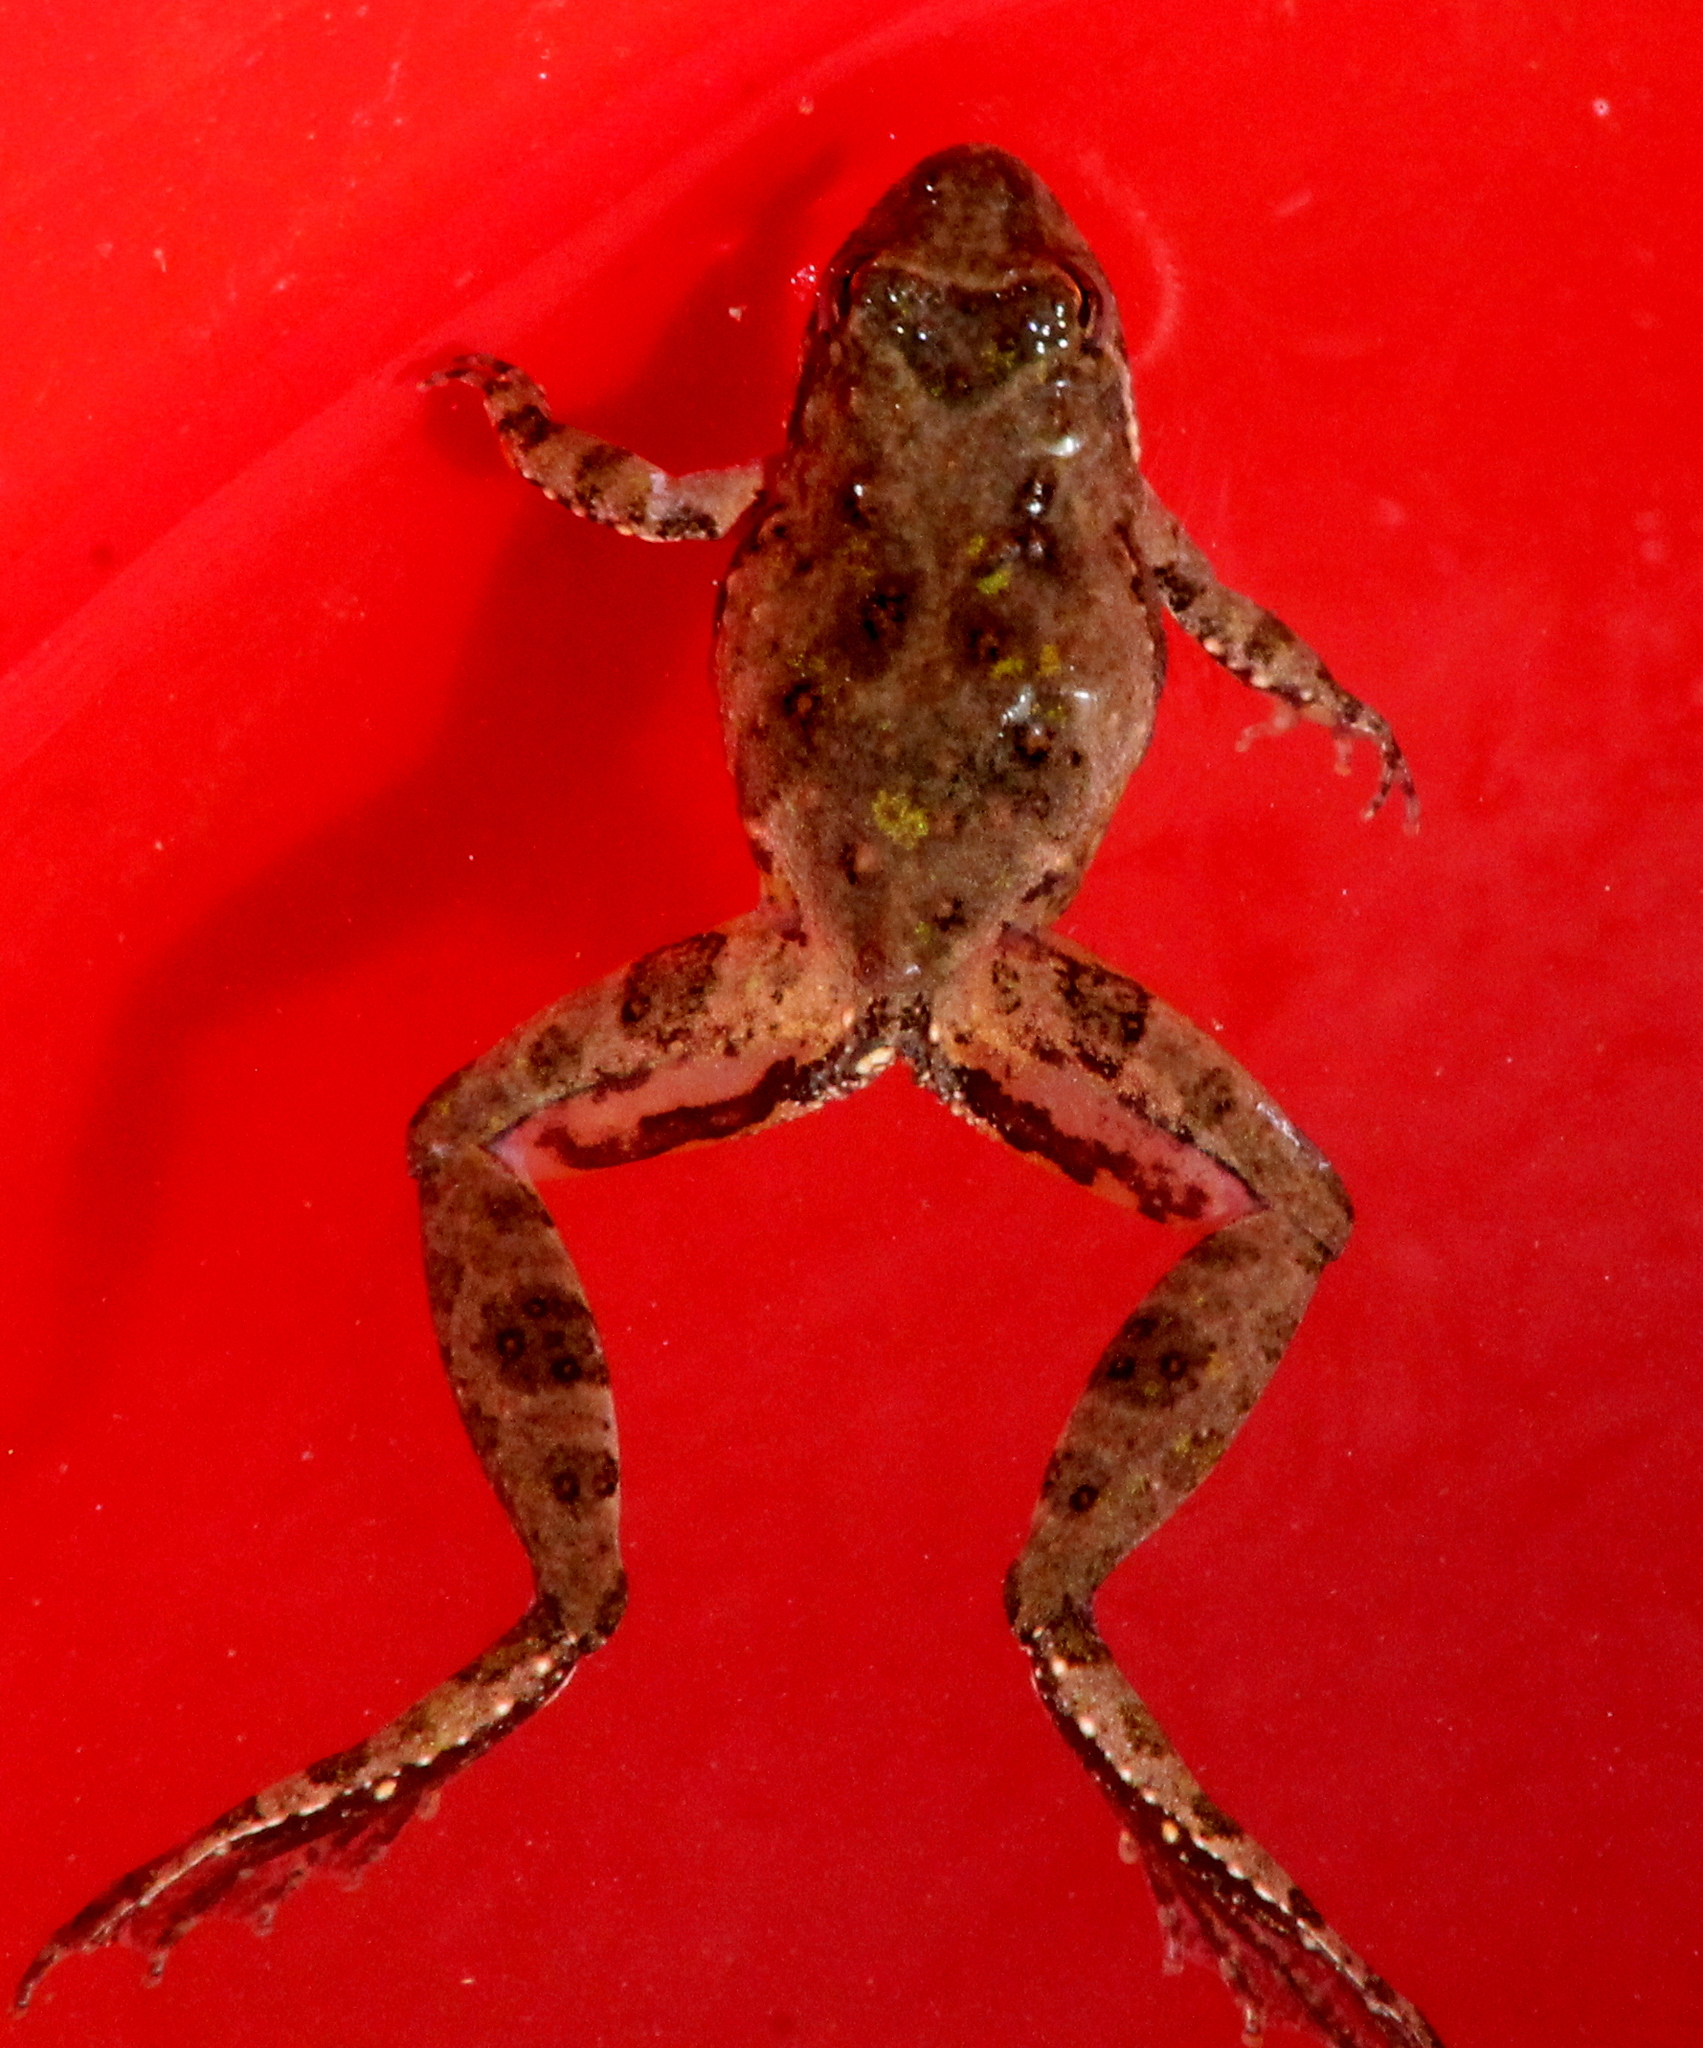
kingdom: Animalia
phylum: Chordata
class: Amphibia
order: Anura
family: Hylidae
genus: Acris
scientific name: Acris blanchardi
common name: Blanchard's cricket frog
